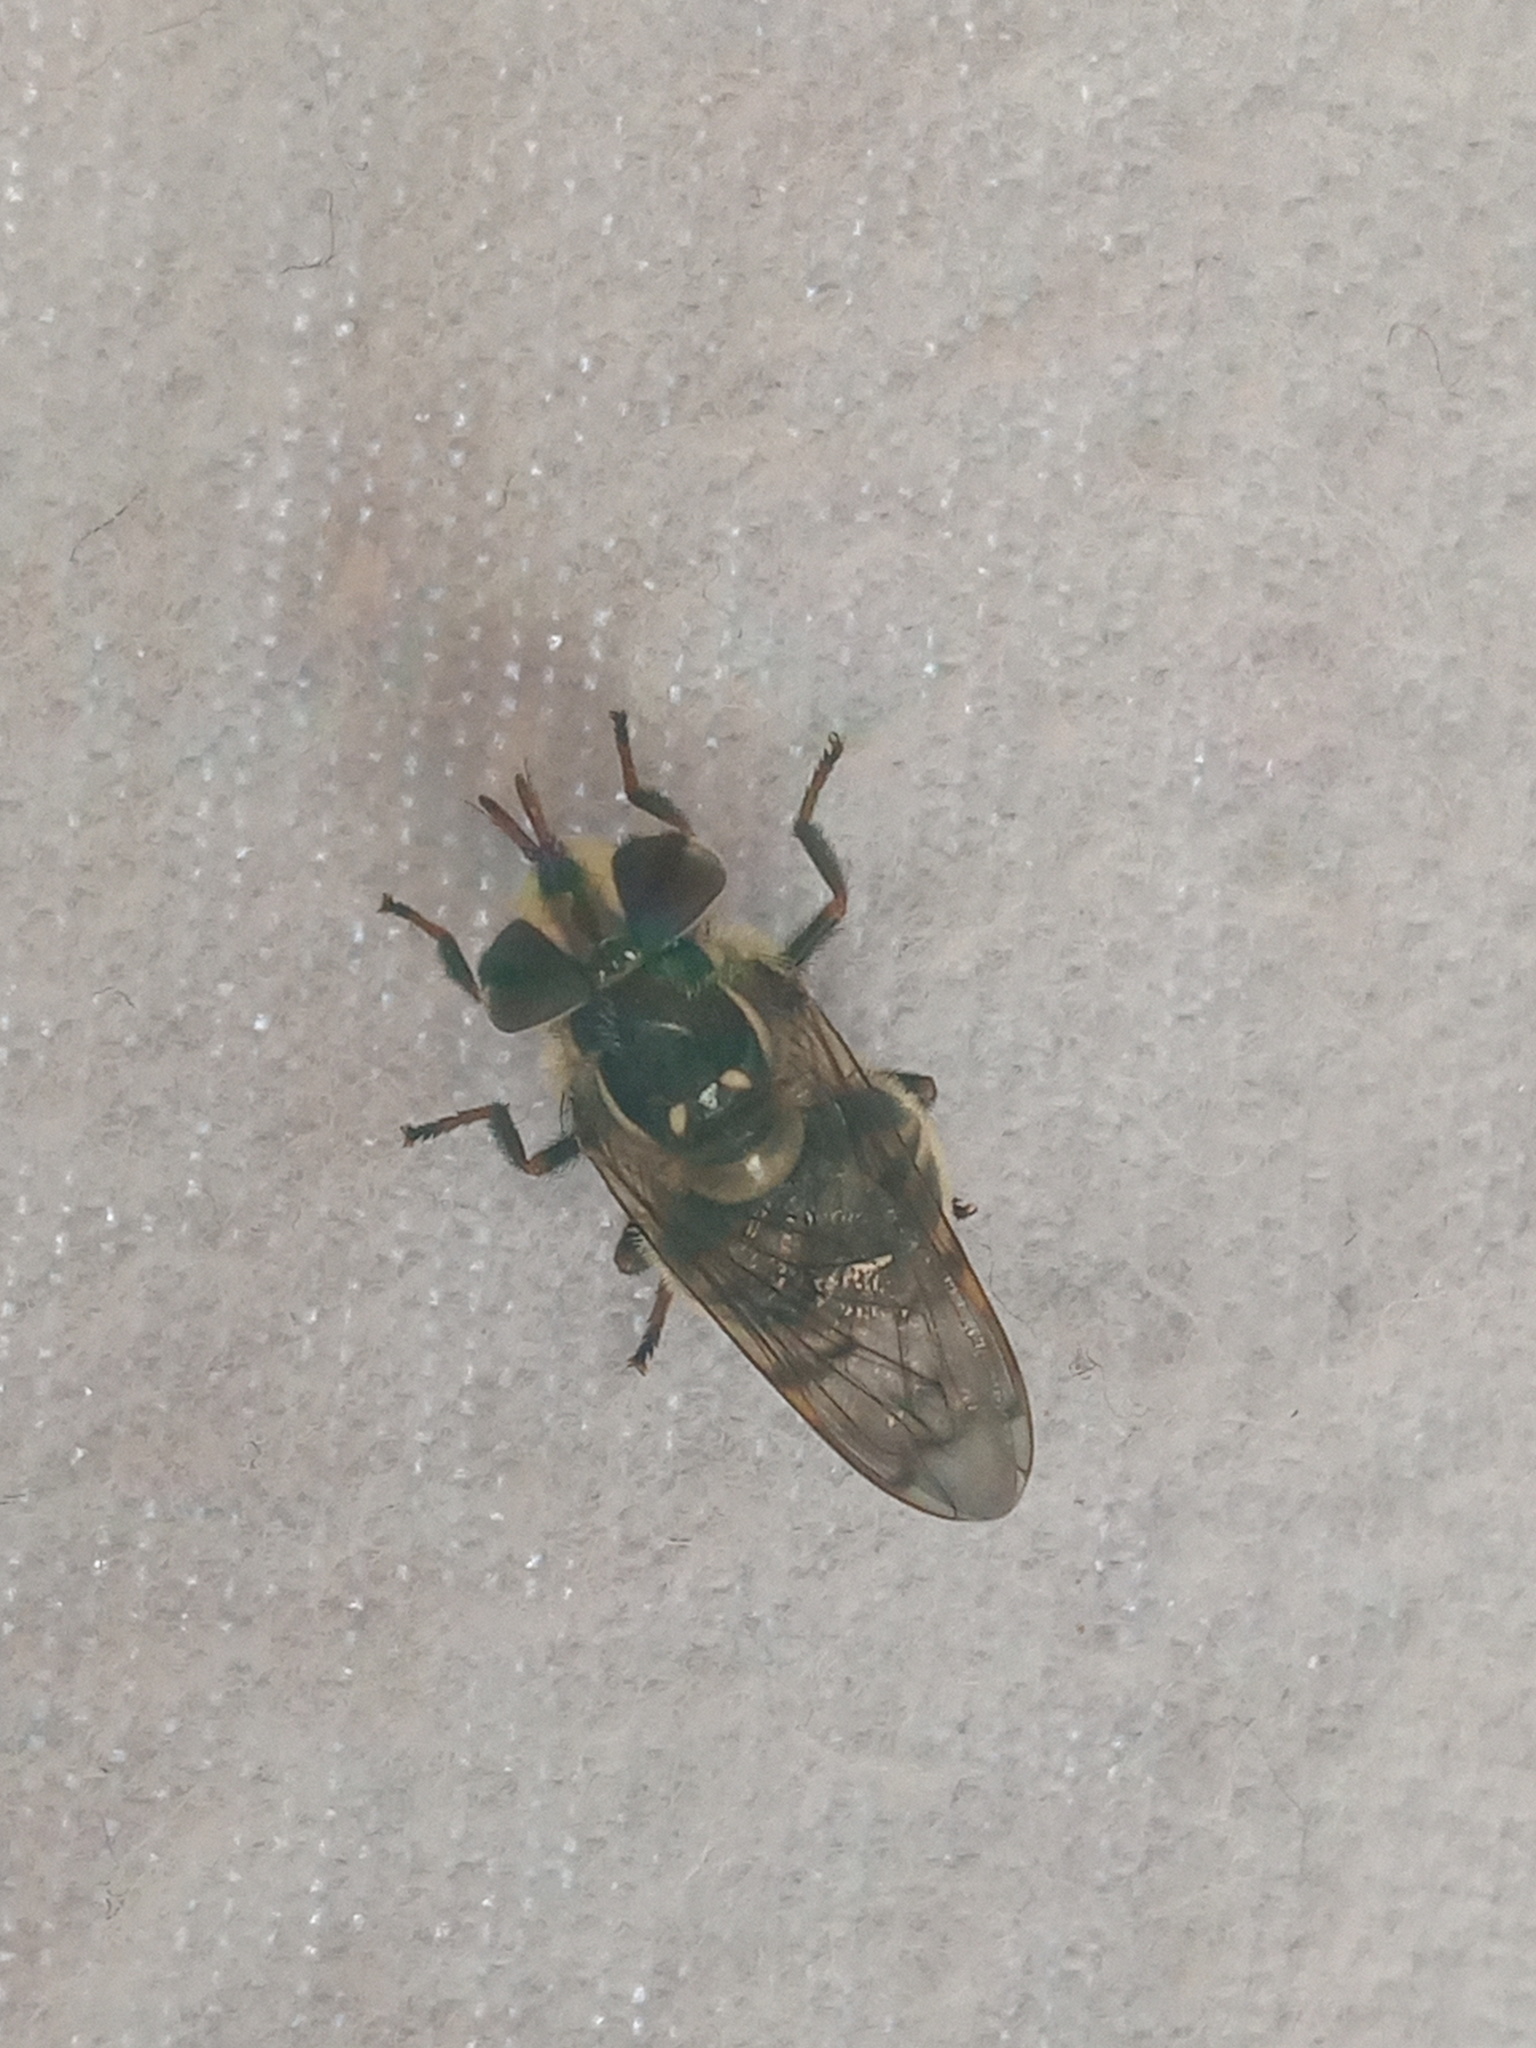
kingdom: Animalia
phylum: Arthropoda
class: Insecta
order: Diptera
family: Syrphidae
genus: Copestylum
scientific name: Copestylum fraudulentum
